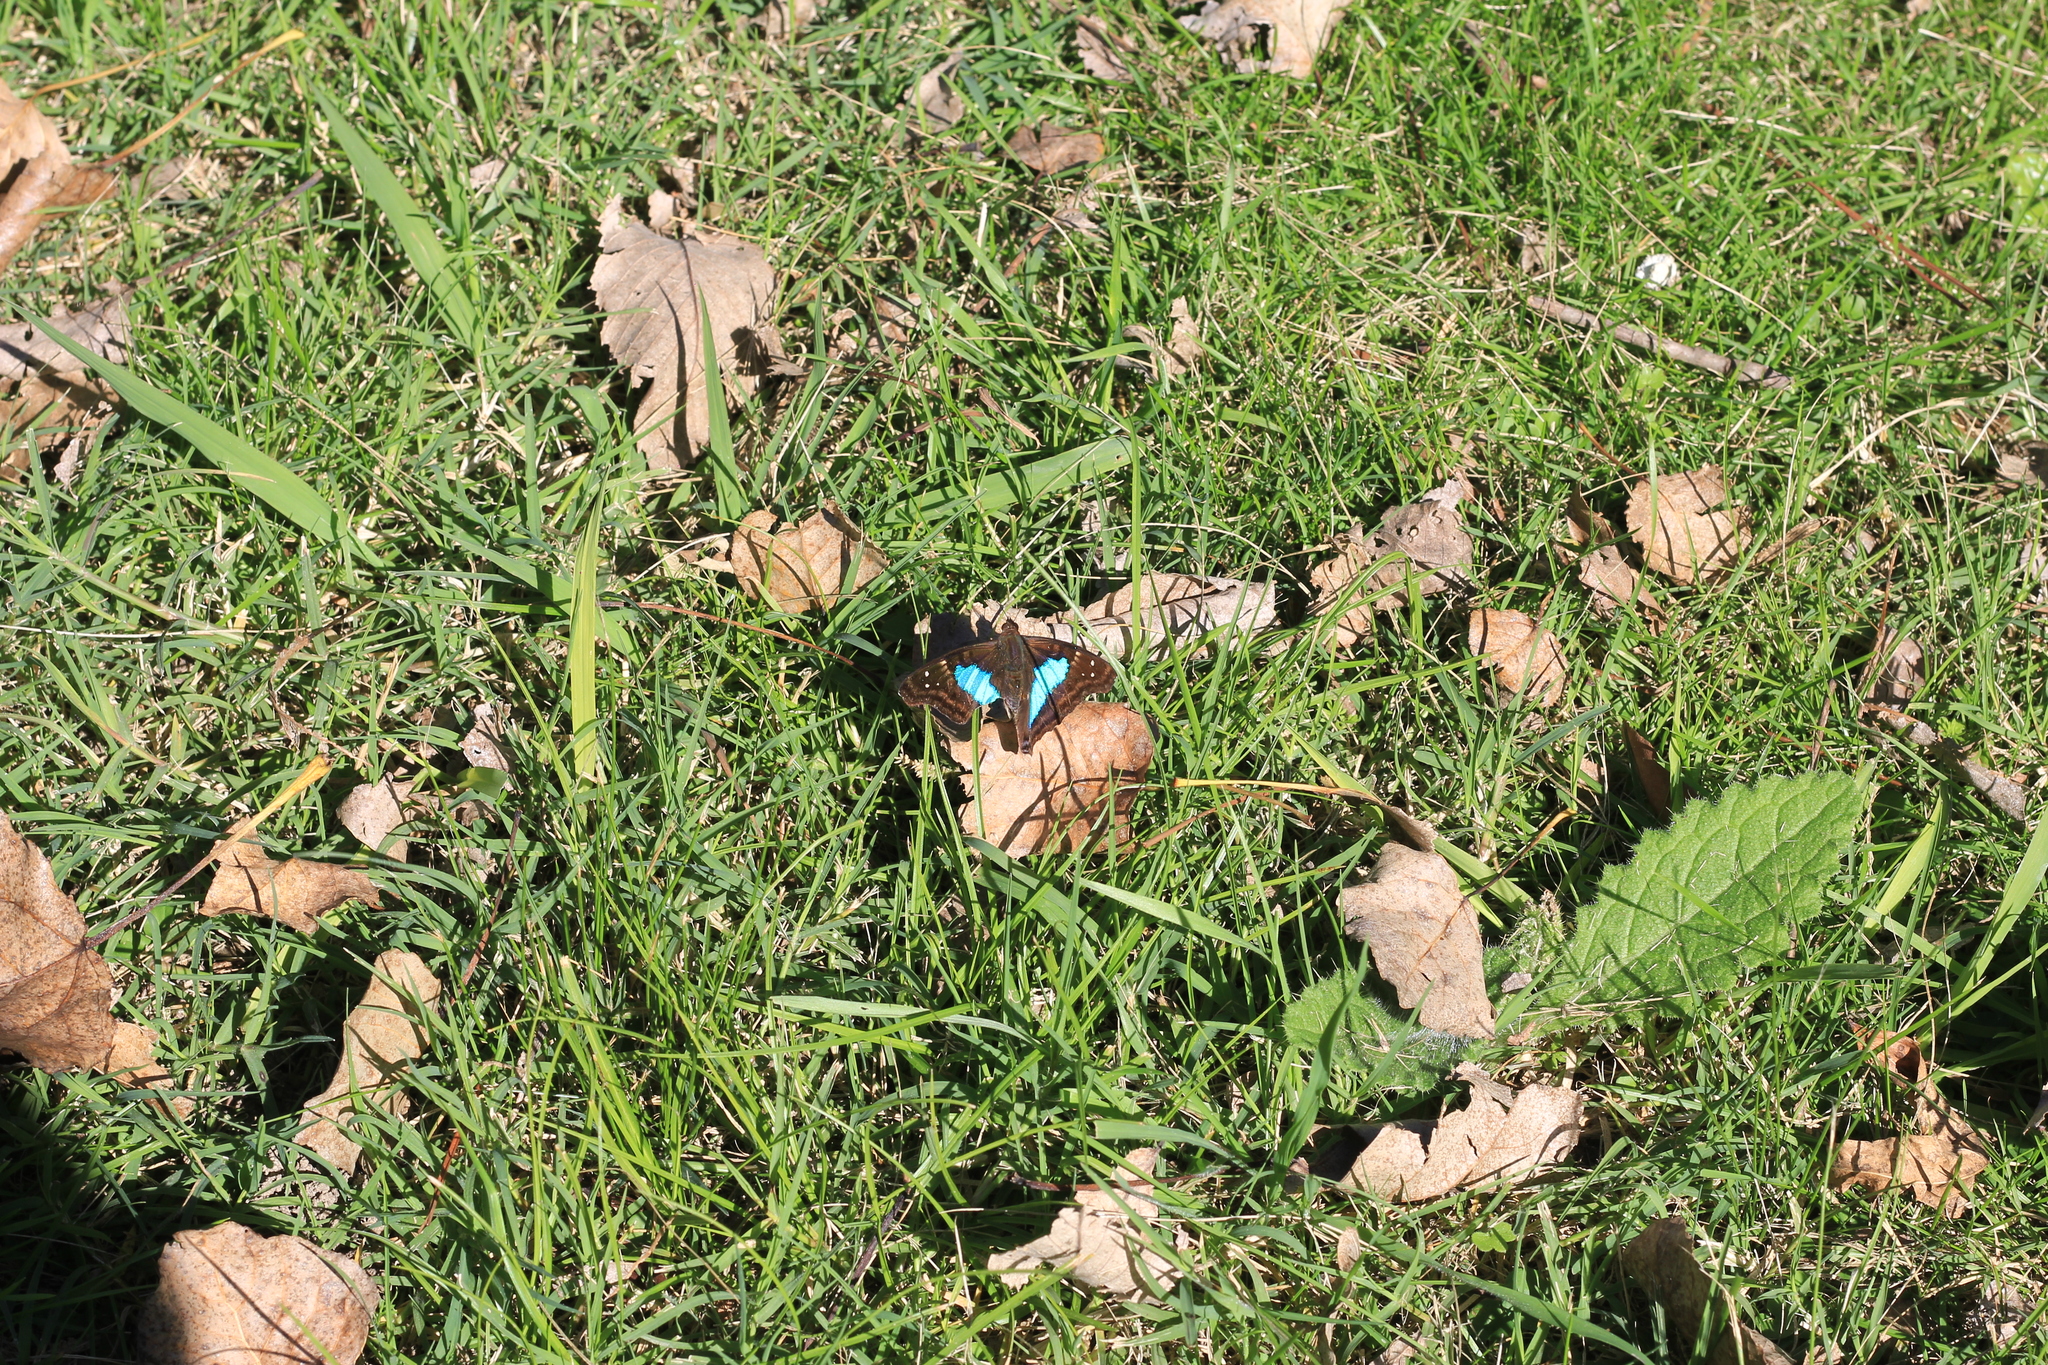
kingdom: Animalia
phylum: Arthropoda
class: Insecta
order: Lepidoptera
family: Nymphalidae
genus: Doxocopa
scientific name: Doxocopa laurentia
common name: Turquoise emperor
